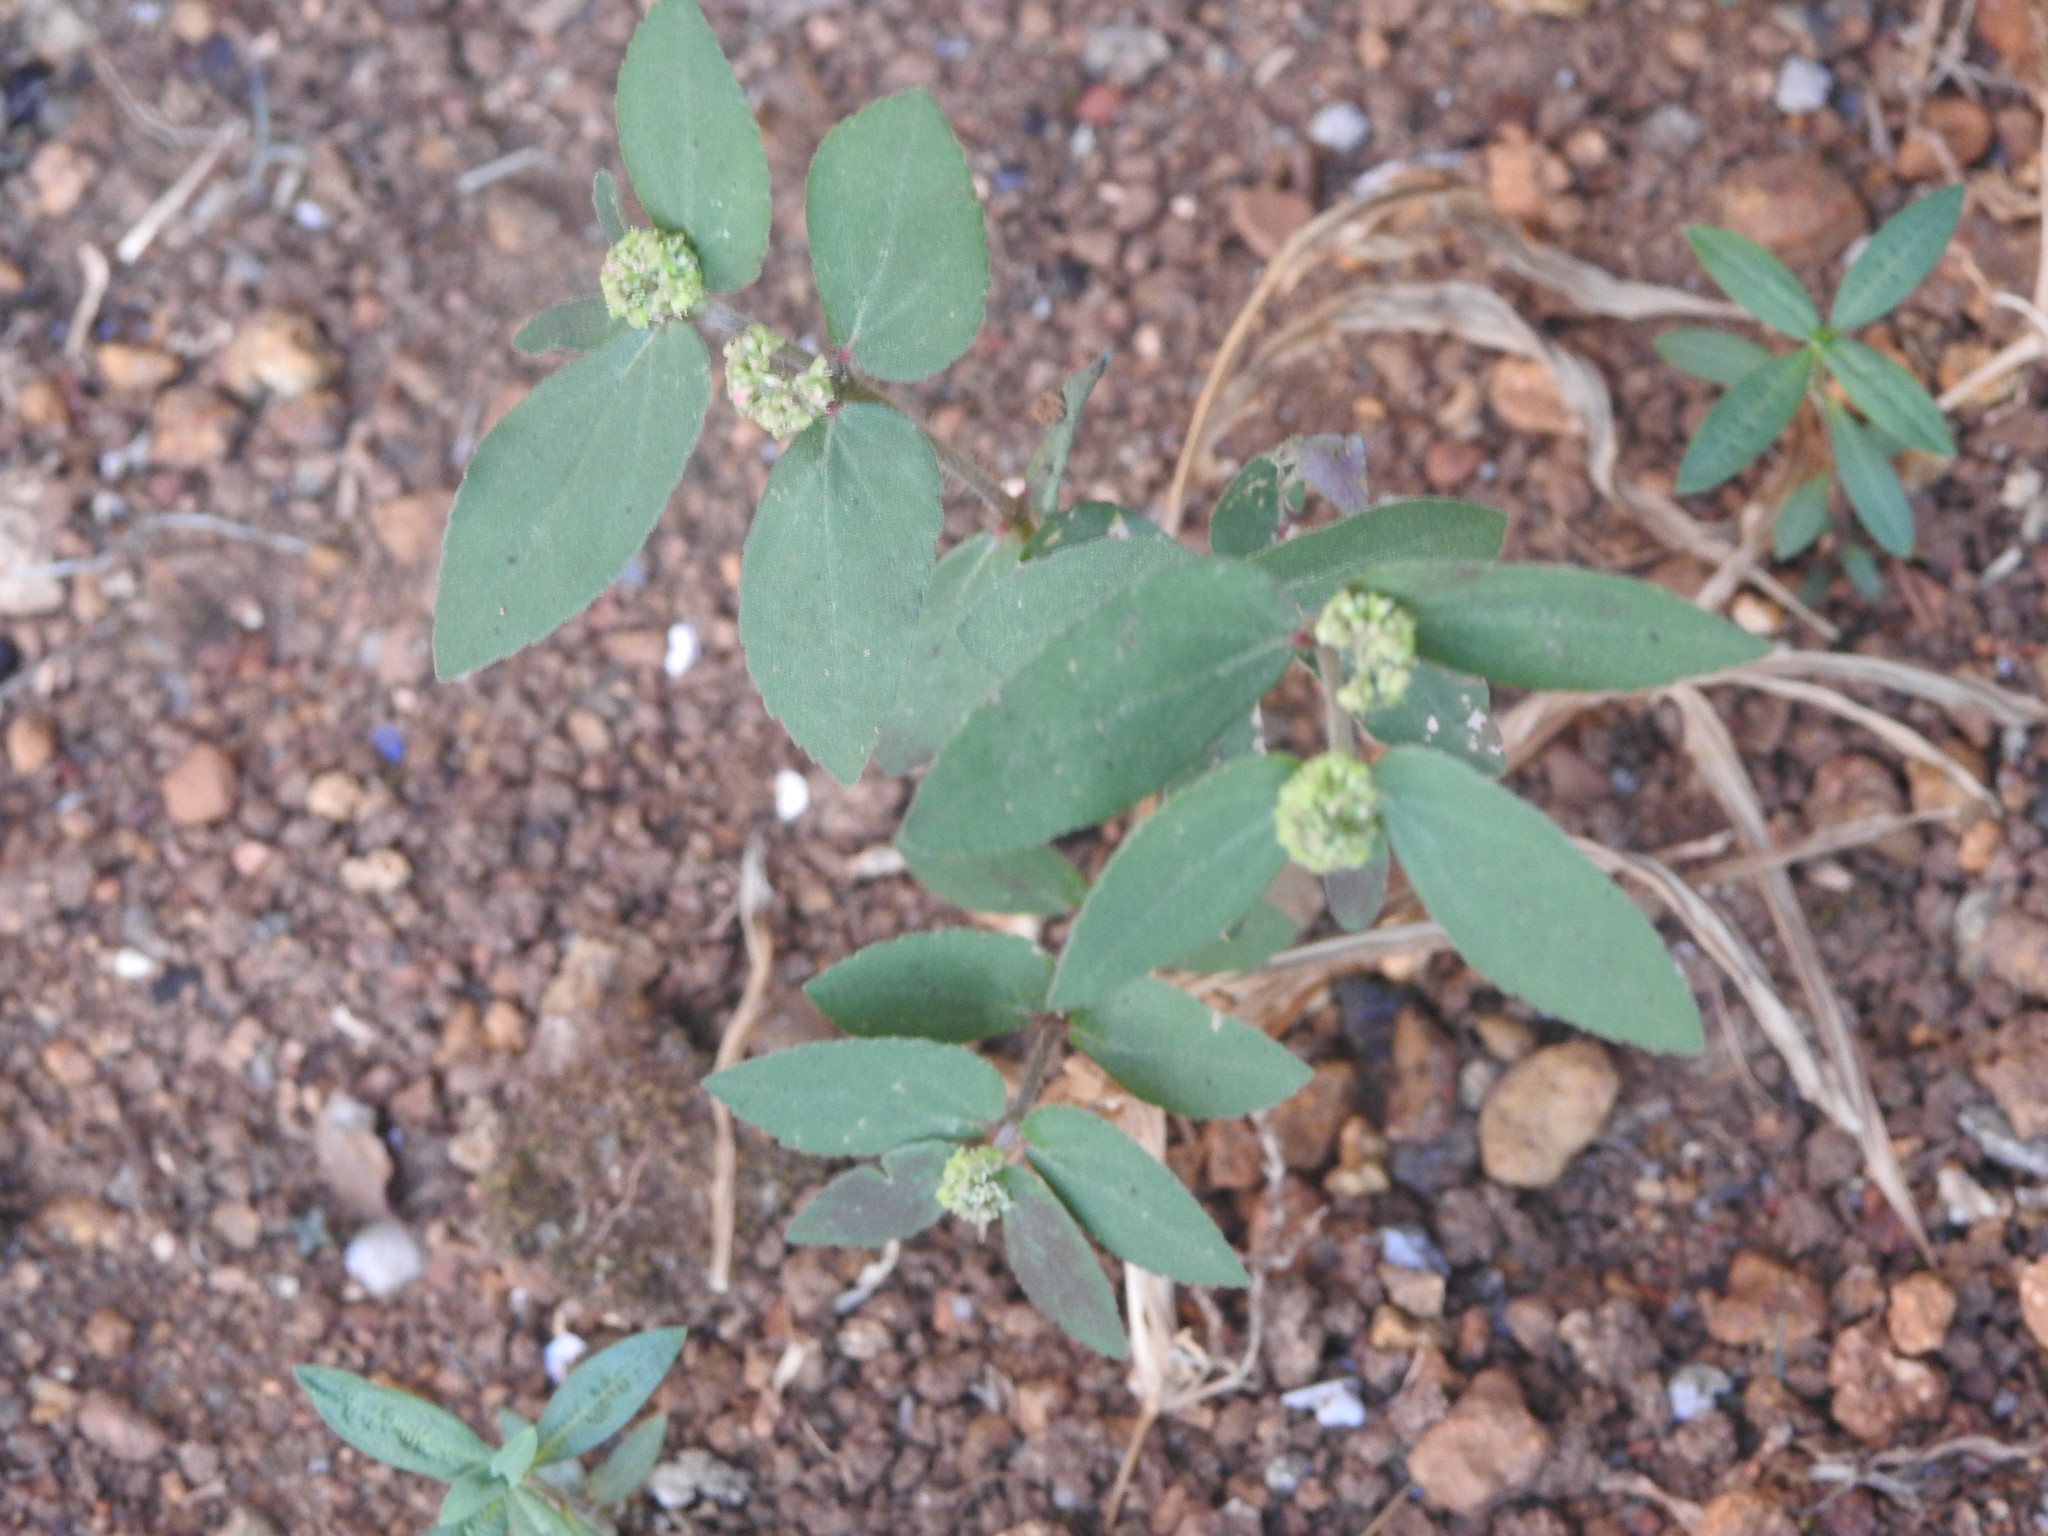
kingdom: Plantae
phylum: Tracheophyta
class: Magnoliopsida
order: Malpighiales
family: Euphorbiaceae
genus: Euphorbia
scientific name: Euphorbia hirta
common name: Pillpod sandmat
